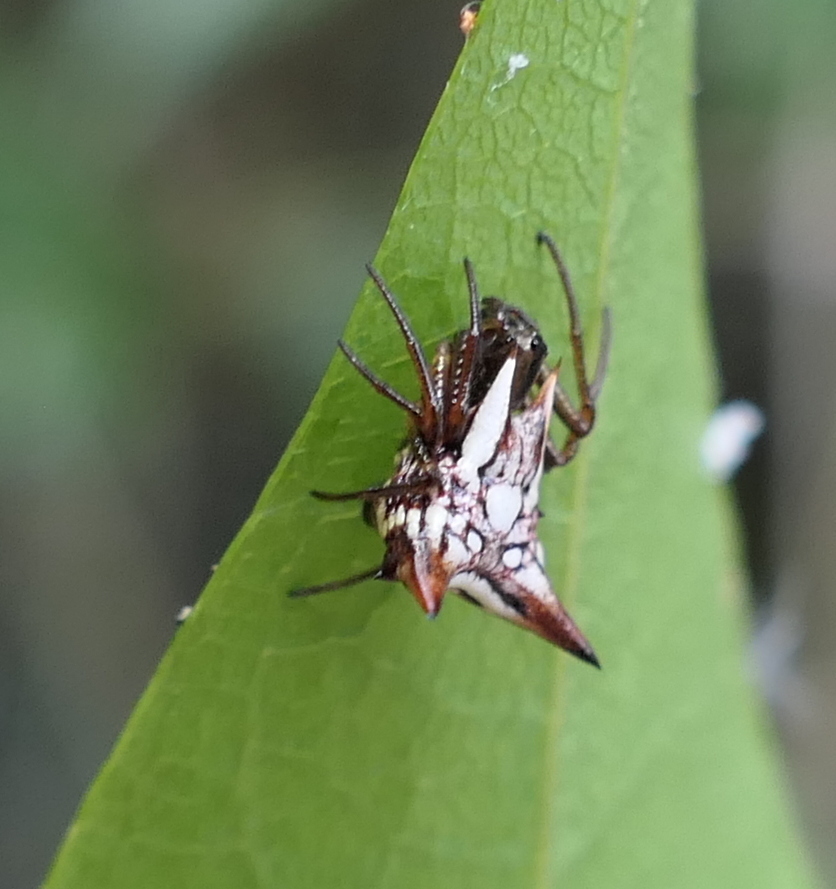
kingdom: Animalia
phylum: Arthropoda
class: Arachnida
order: Araneae
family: Araneidae
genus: Micrathena
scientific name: Micrathena evansi
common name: Orb weavers
